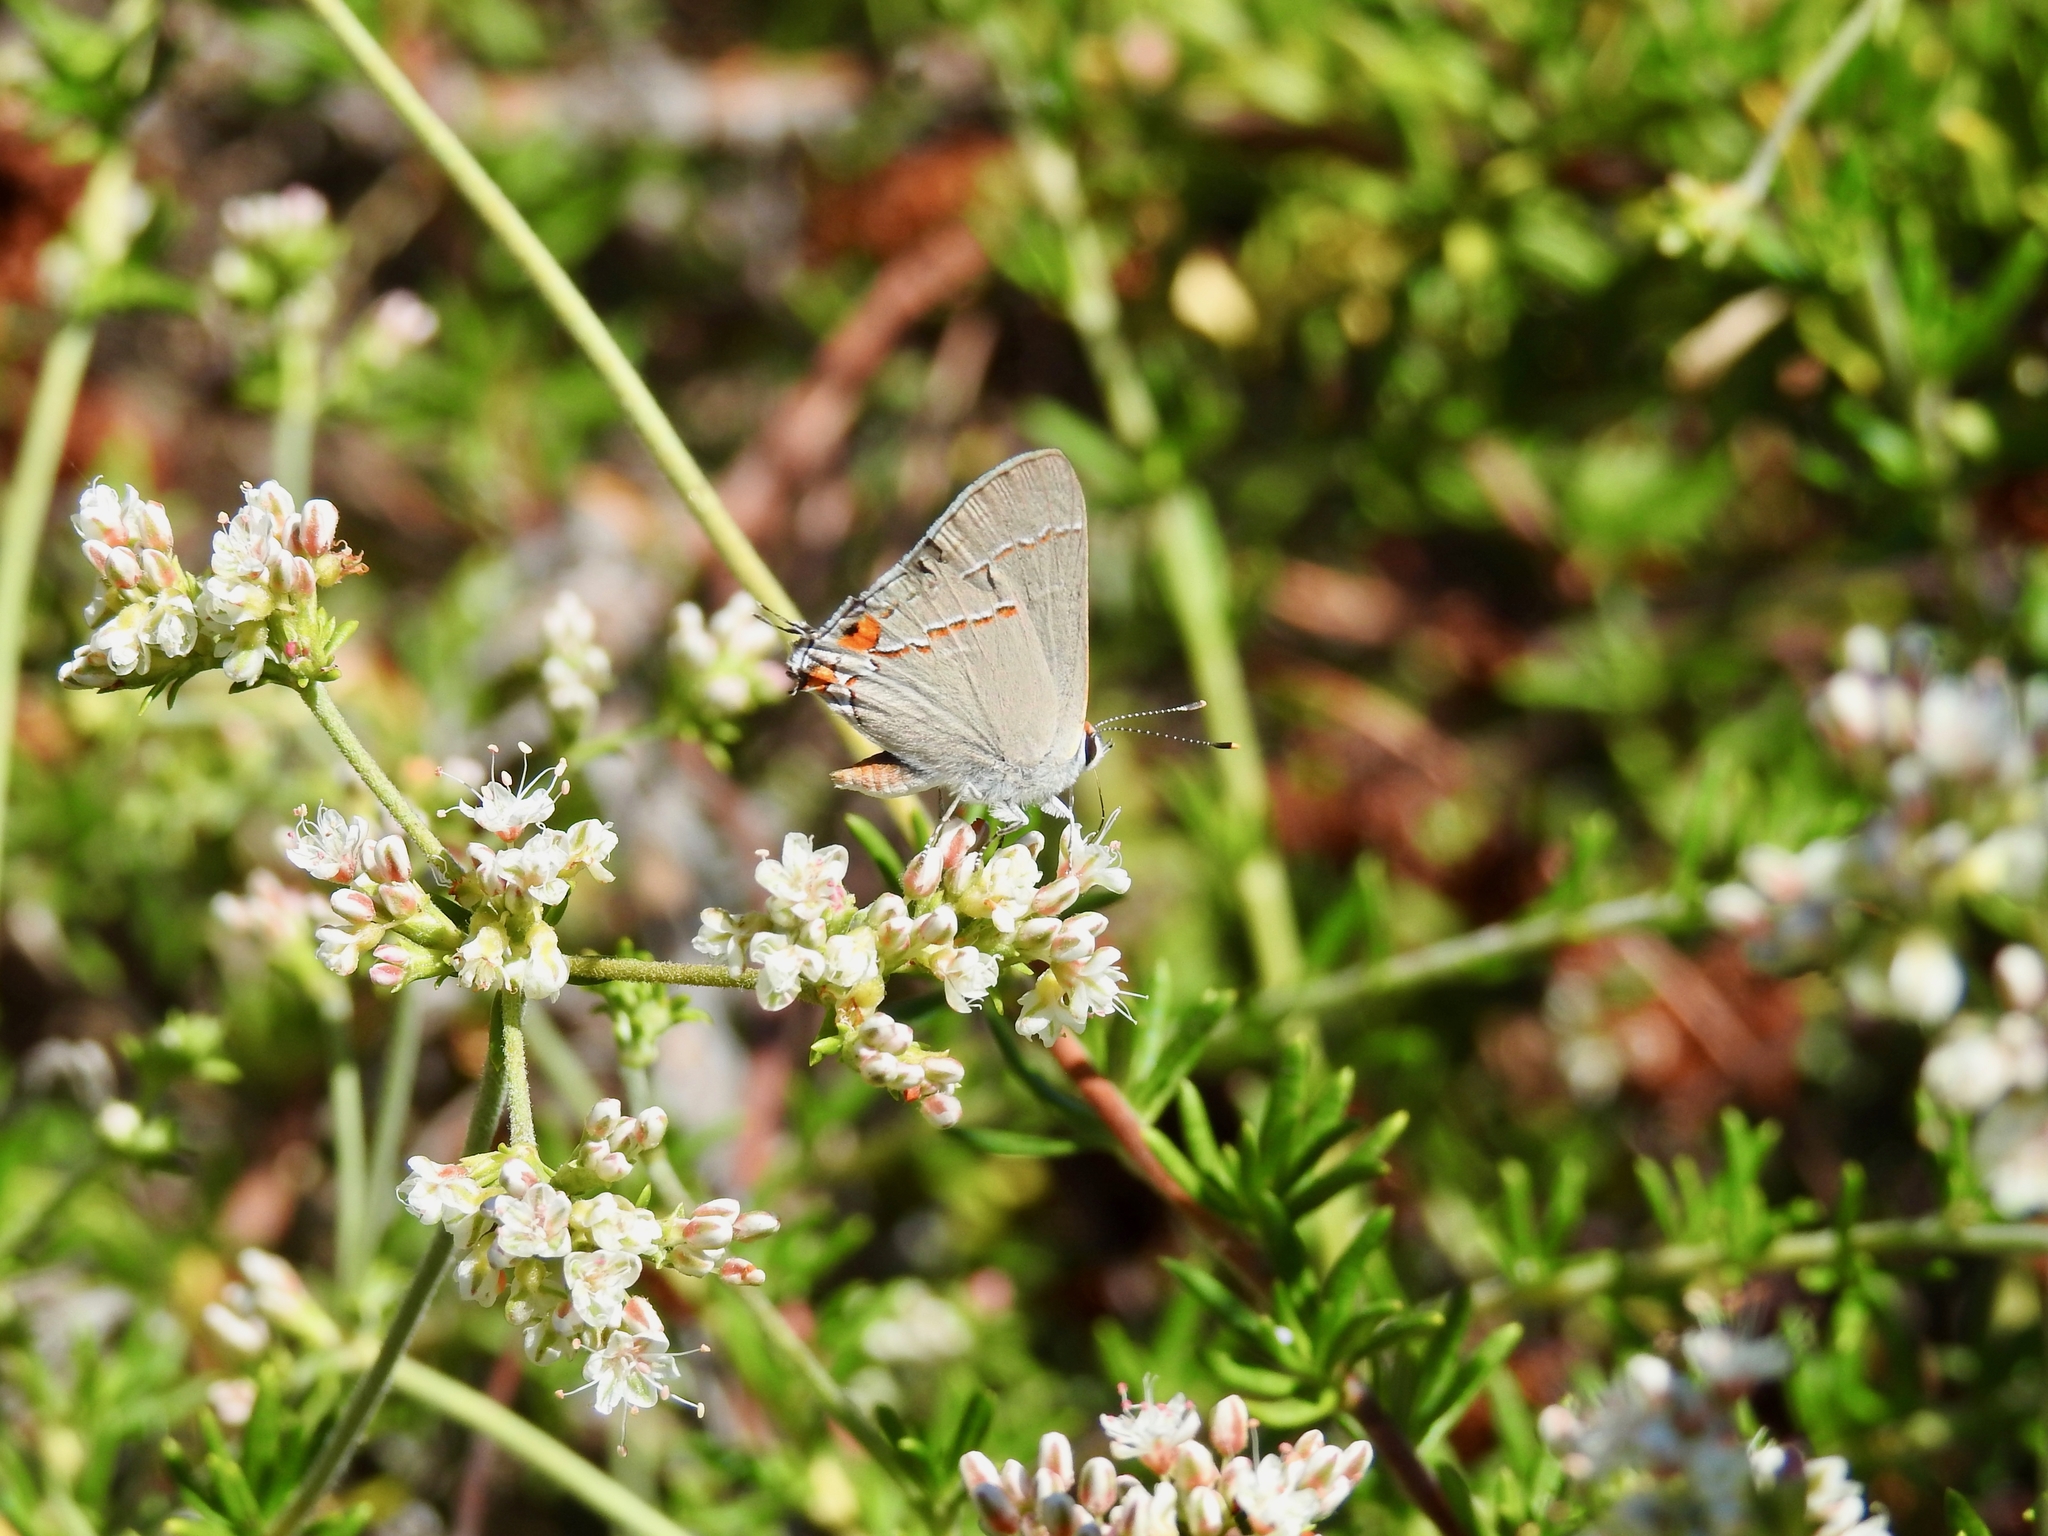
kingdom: Animalia
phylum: Arthropoda
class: Insecta
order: Lepidoptera
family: Lycaenidae
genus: Strymon
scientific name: Strymon melinus
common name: Gray hairstreak
